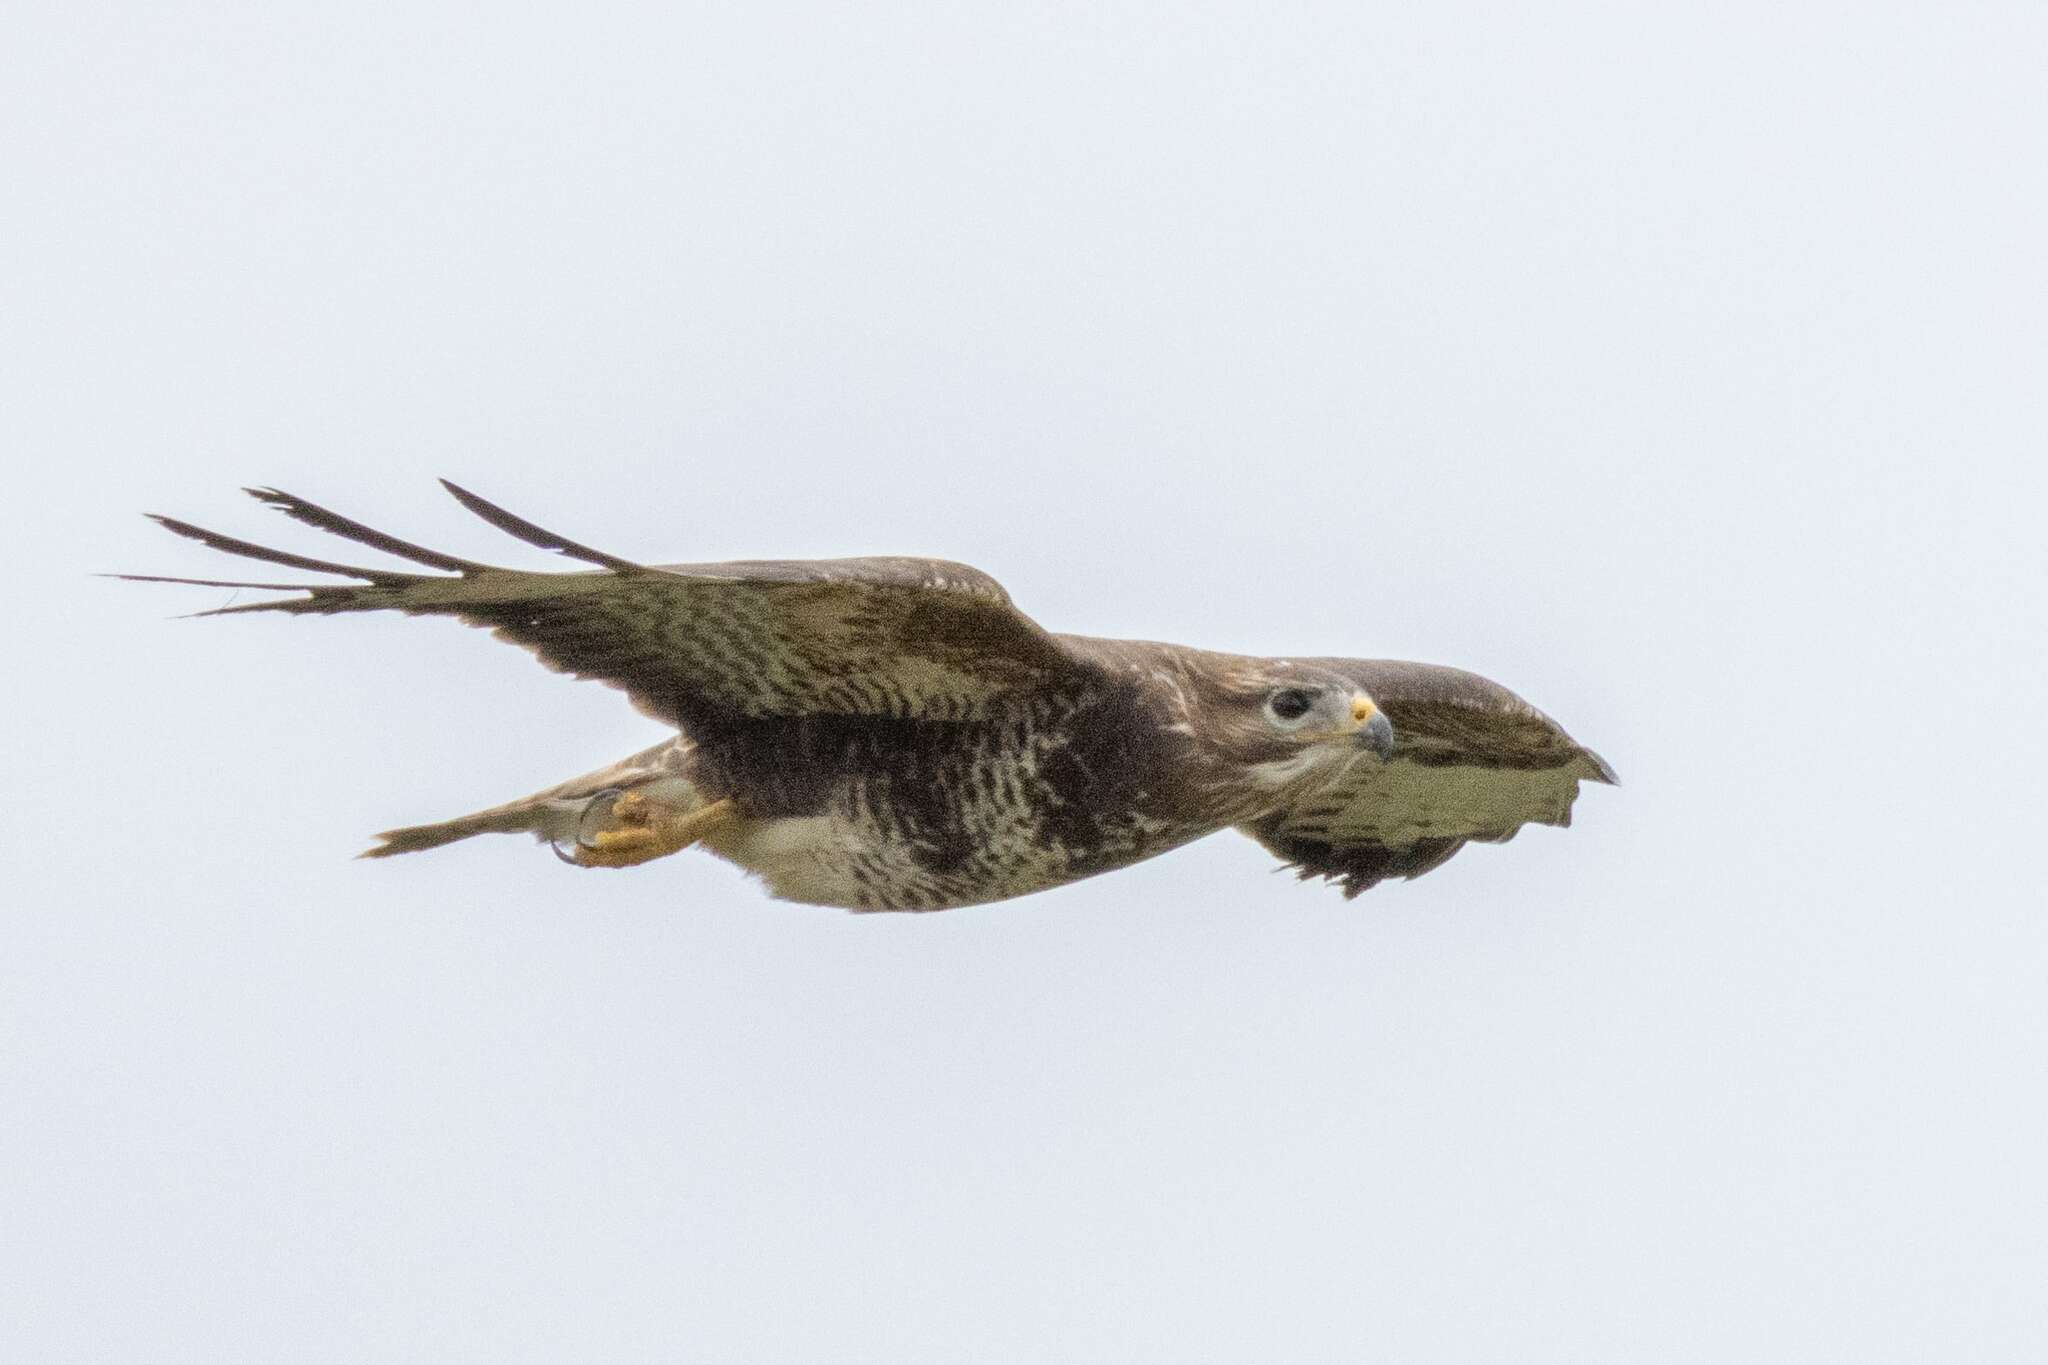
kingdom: Animalia
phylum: Chordata
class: Aves
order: Accipitriformes
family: Accipitridae
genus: Buteo
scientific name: Buteo buteo
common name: Common buzzard
